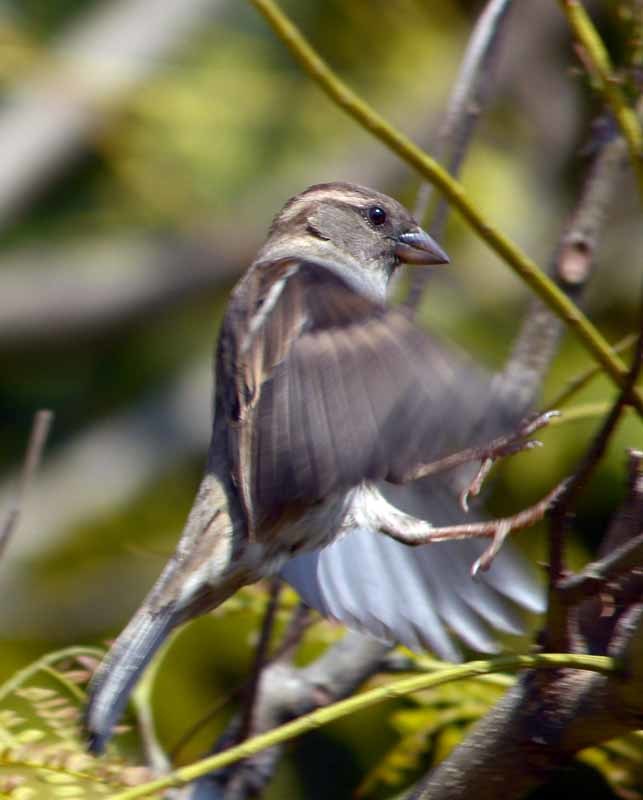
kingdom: Animalia
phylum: Chordata
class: Aves
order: Passeriformes
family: Passeridae
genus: Passer
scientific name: Passer domesticus
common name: House sparrow
